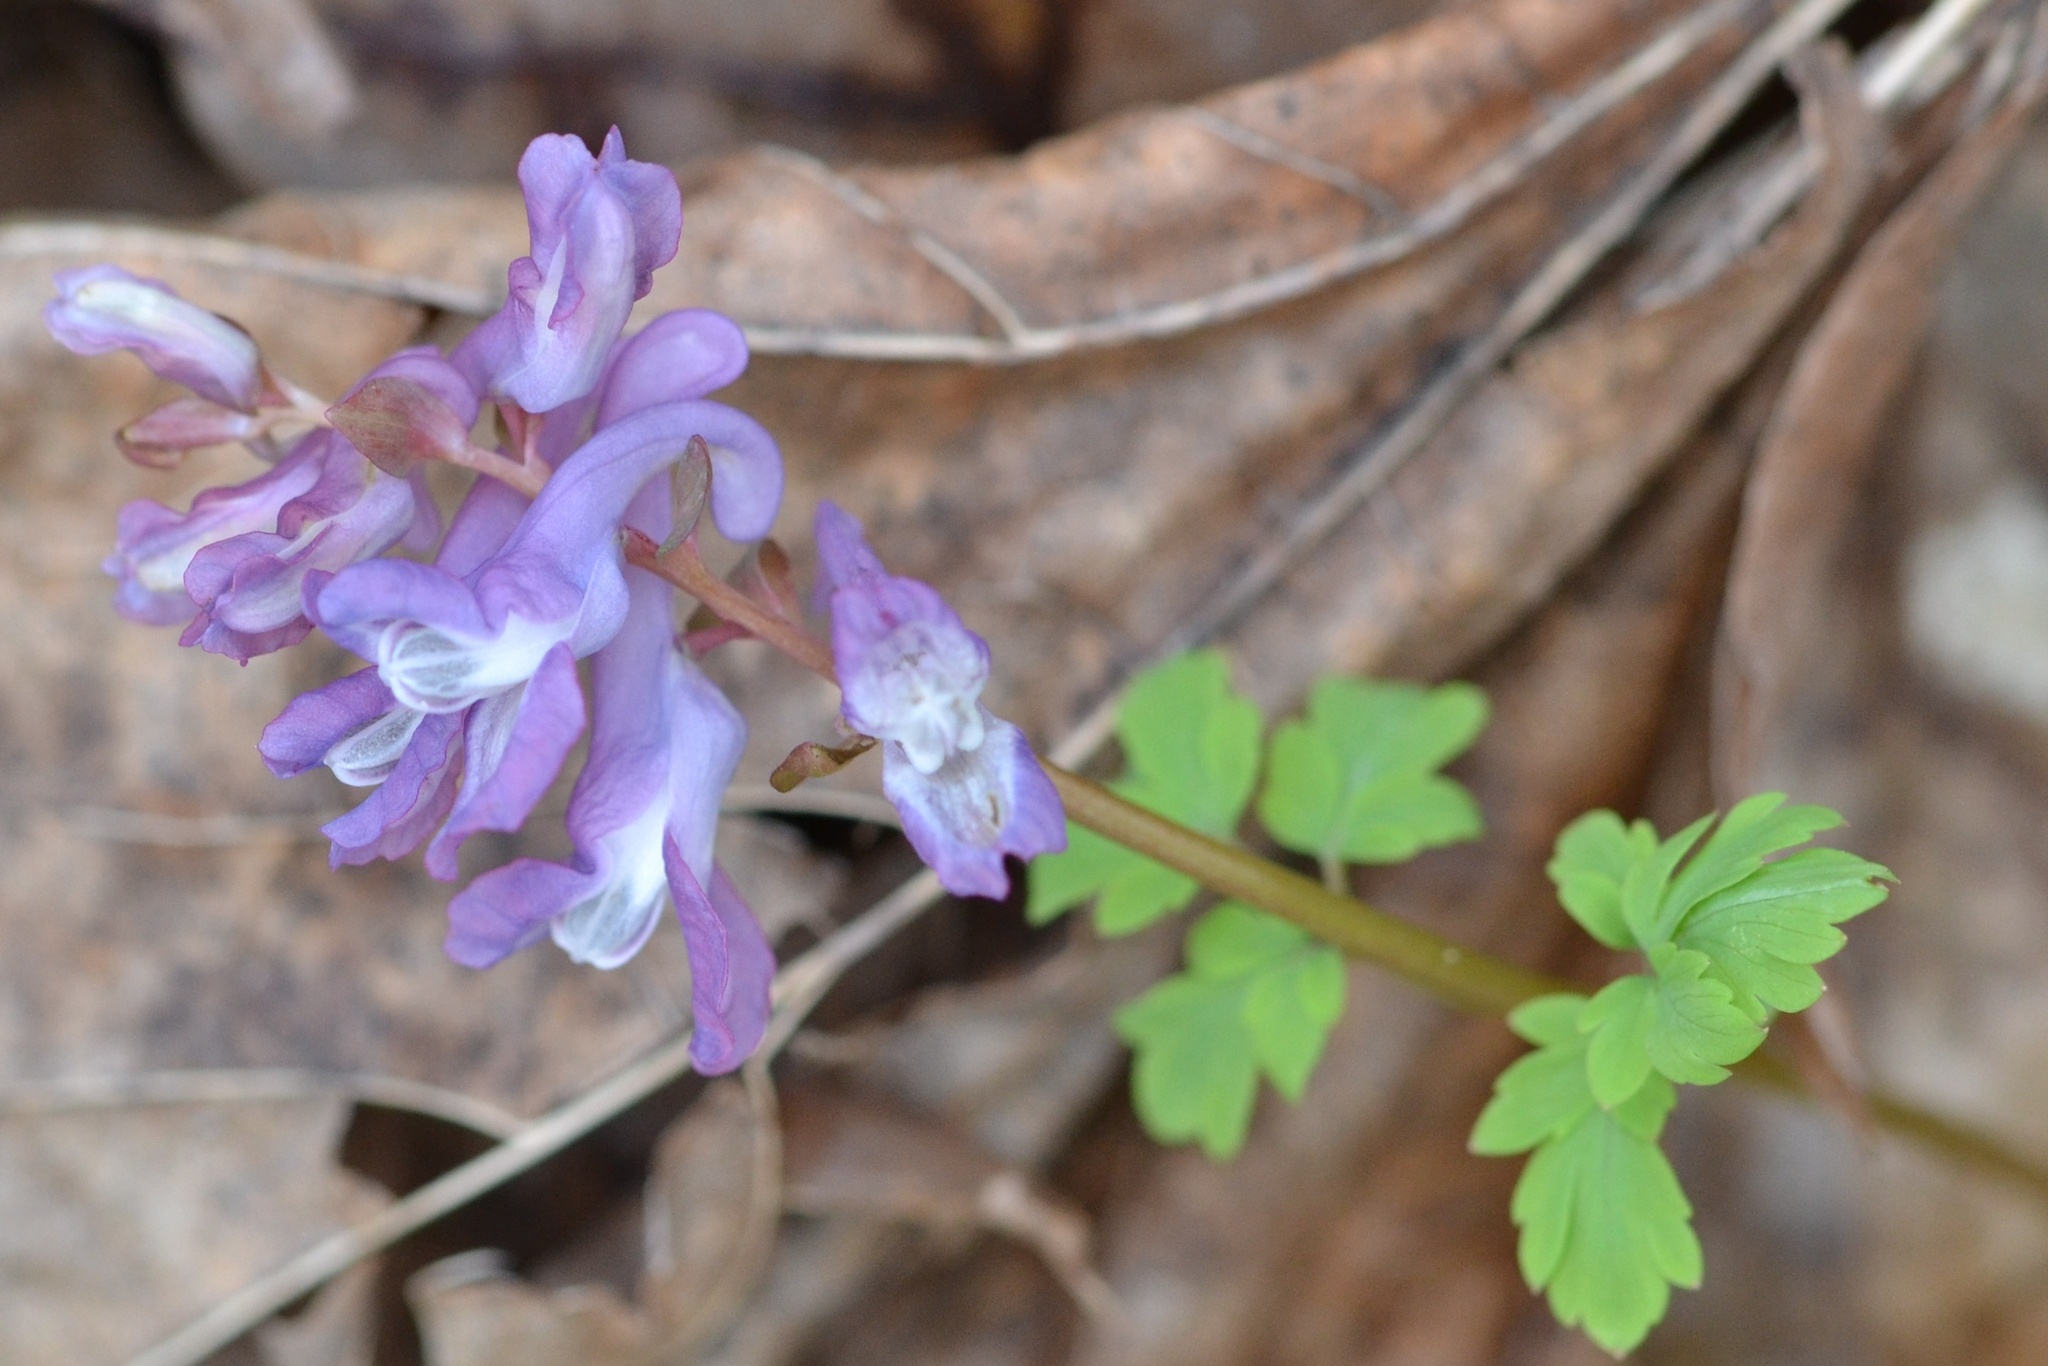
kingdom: Plantae
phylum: Tracheophyta
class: Magnoliopsida
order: Ranunculales
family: Papaveraceae
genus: Corydalis
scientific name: Corydalis cava
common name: Hollowroot
